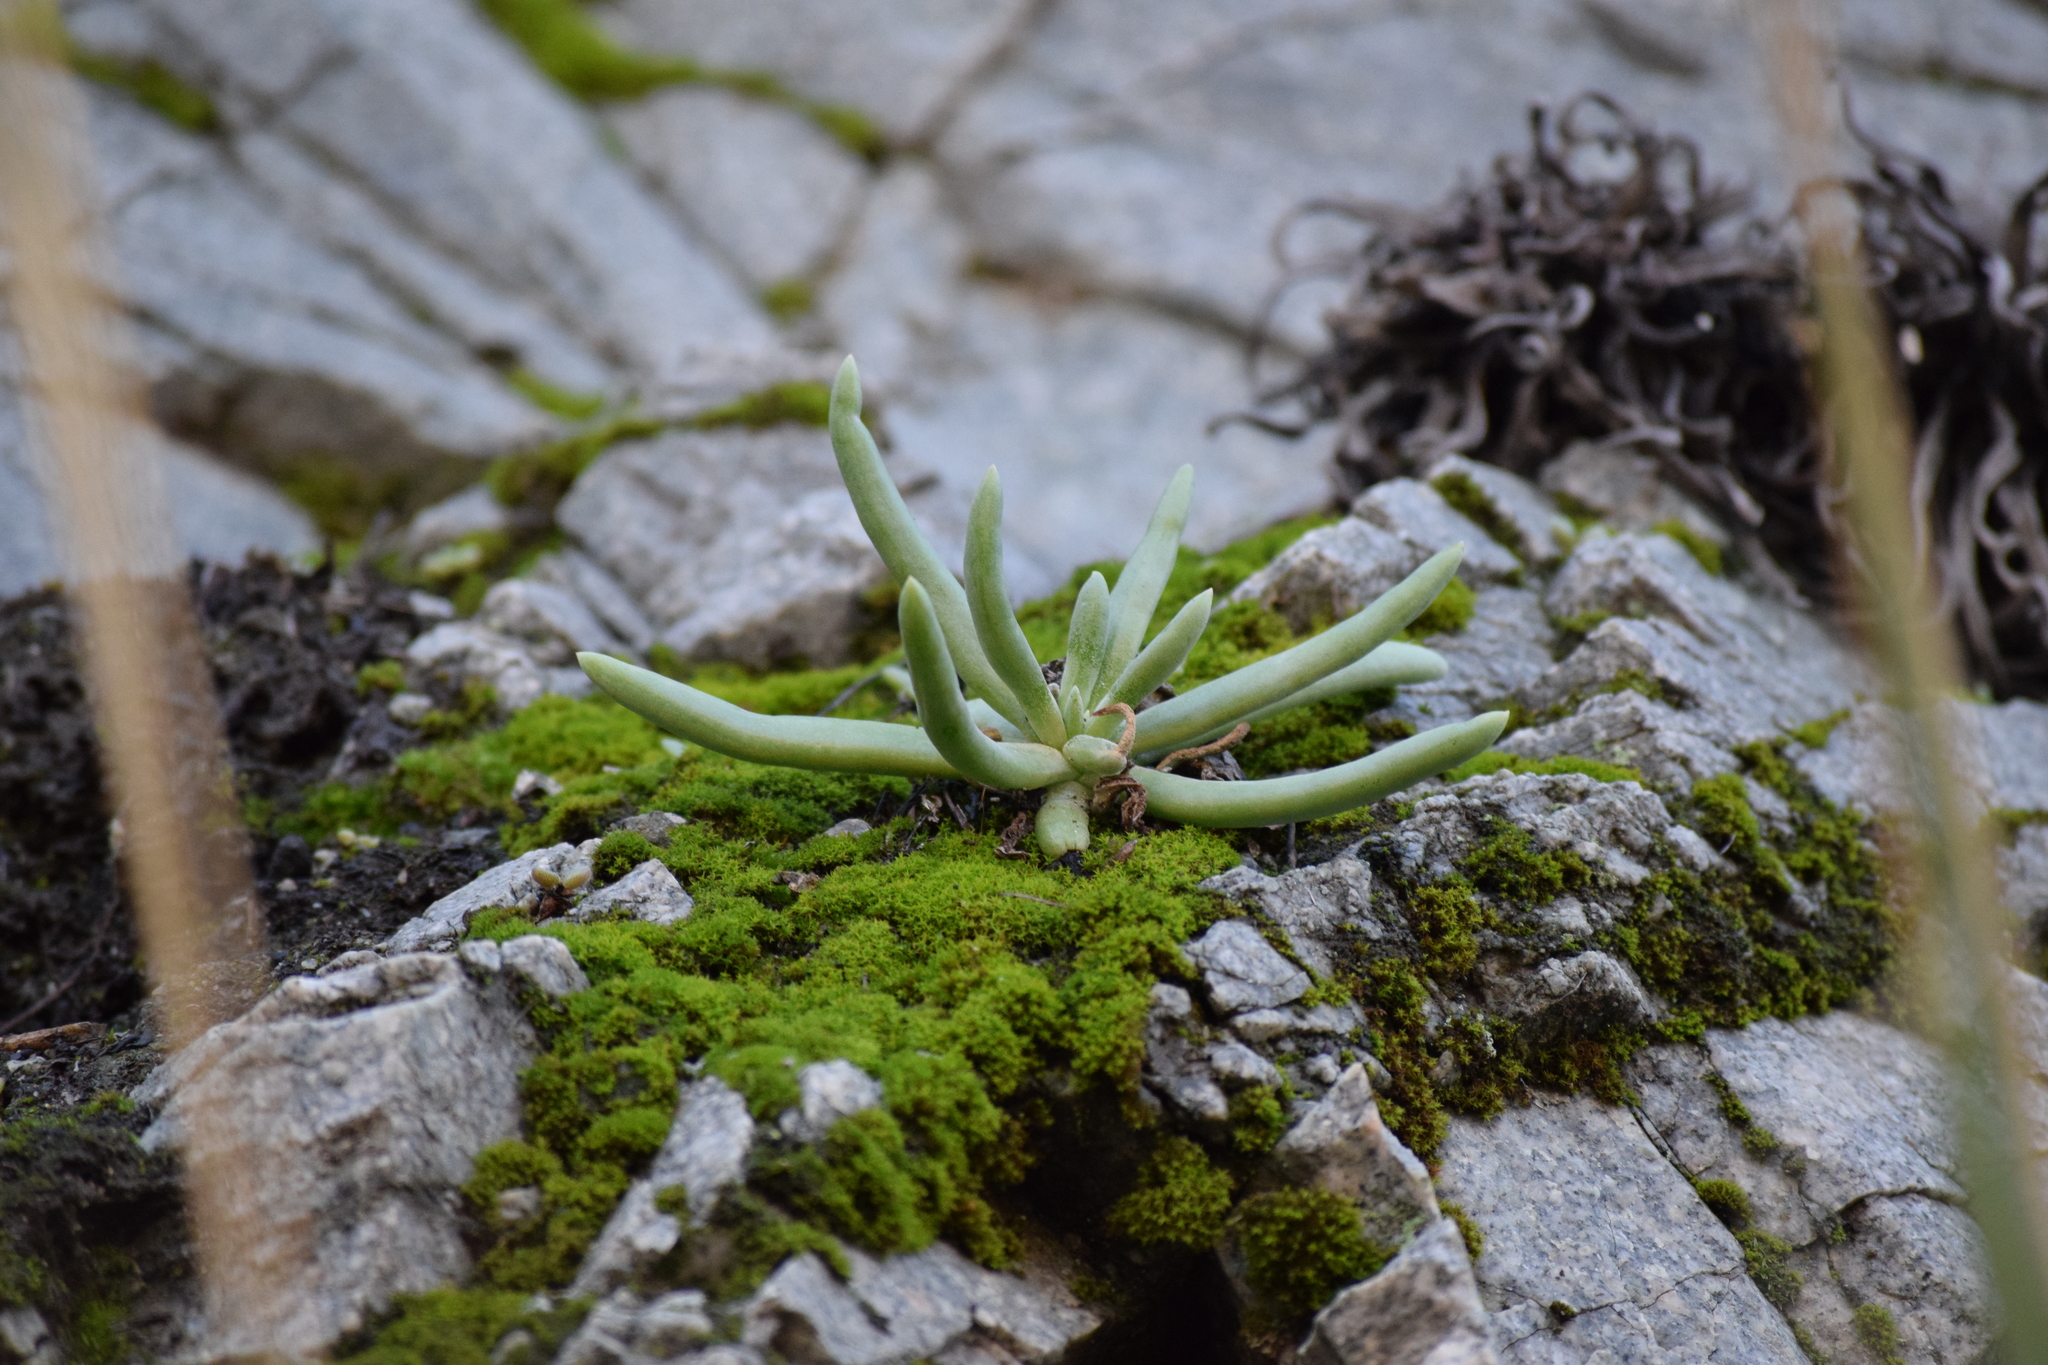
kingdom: Plantae
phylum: Tracheophyta
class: Magnoliopsida
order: Saxifragales
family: Crassulaceae
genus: Dudleya
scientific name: Dudleya densiflora
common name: San gabriel mountains dudleya
